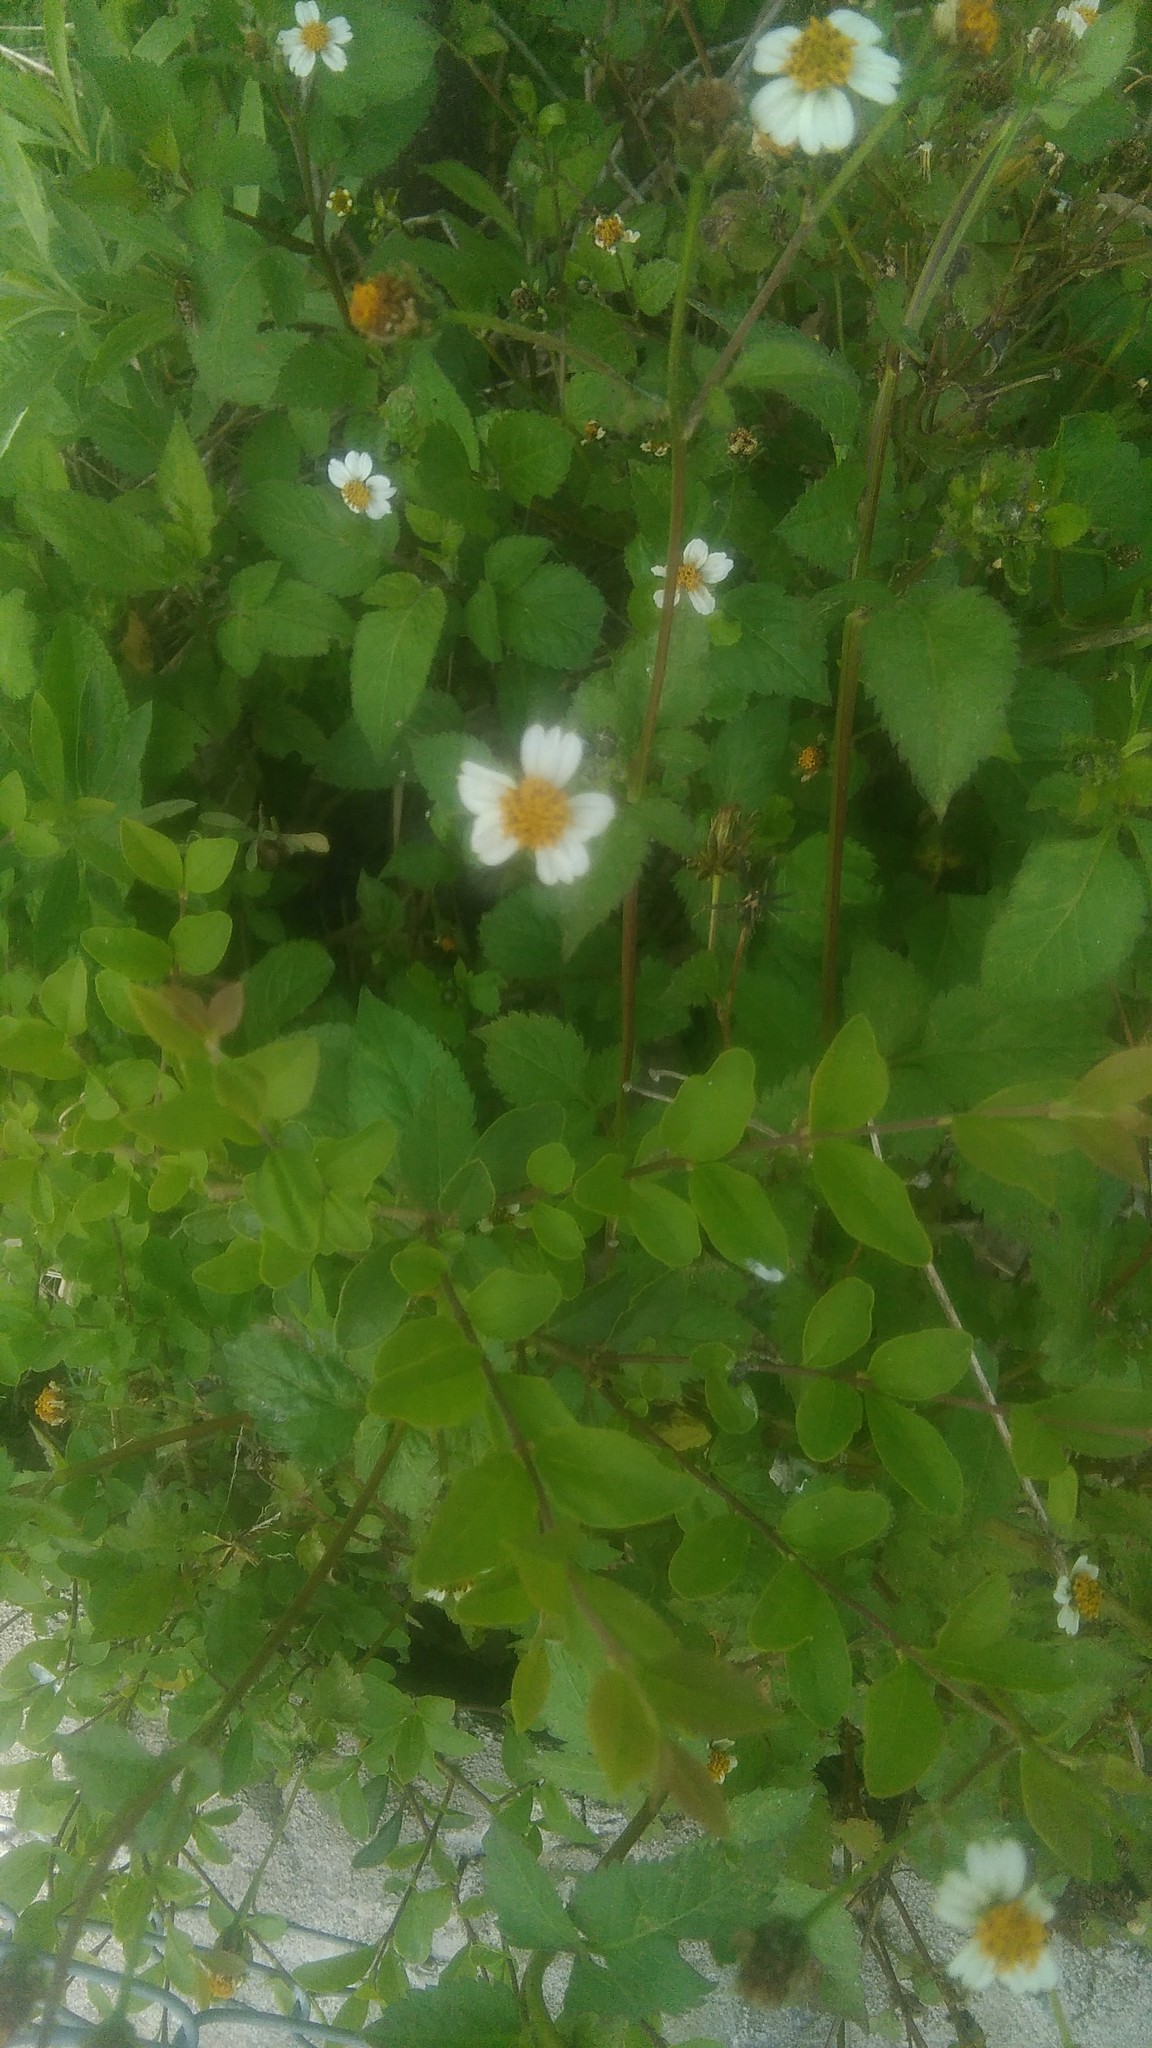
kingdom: Plantae
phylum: Tracheophyta
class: Magnoliopsida
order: Asterales
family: Asteraceae
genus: Bidens
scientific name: Bidens pilosa
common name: Black-jack
